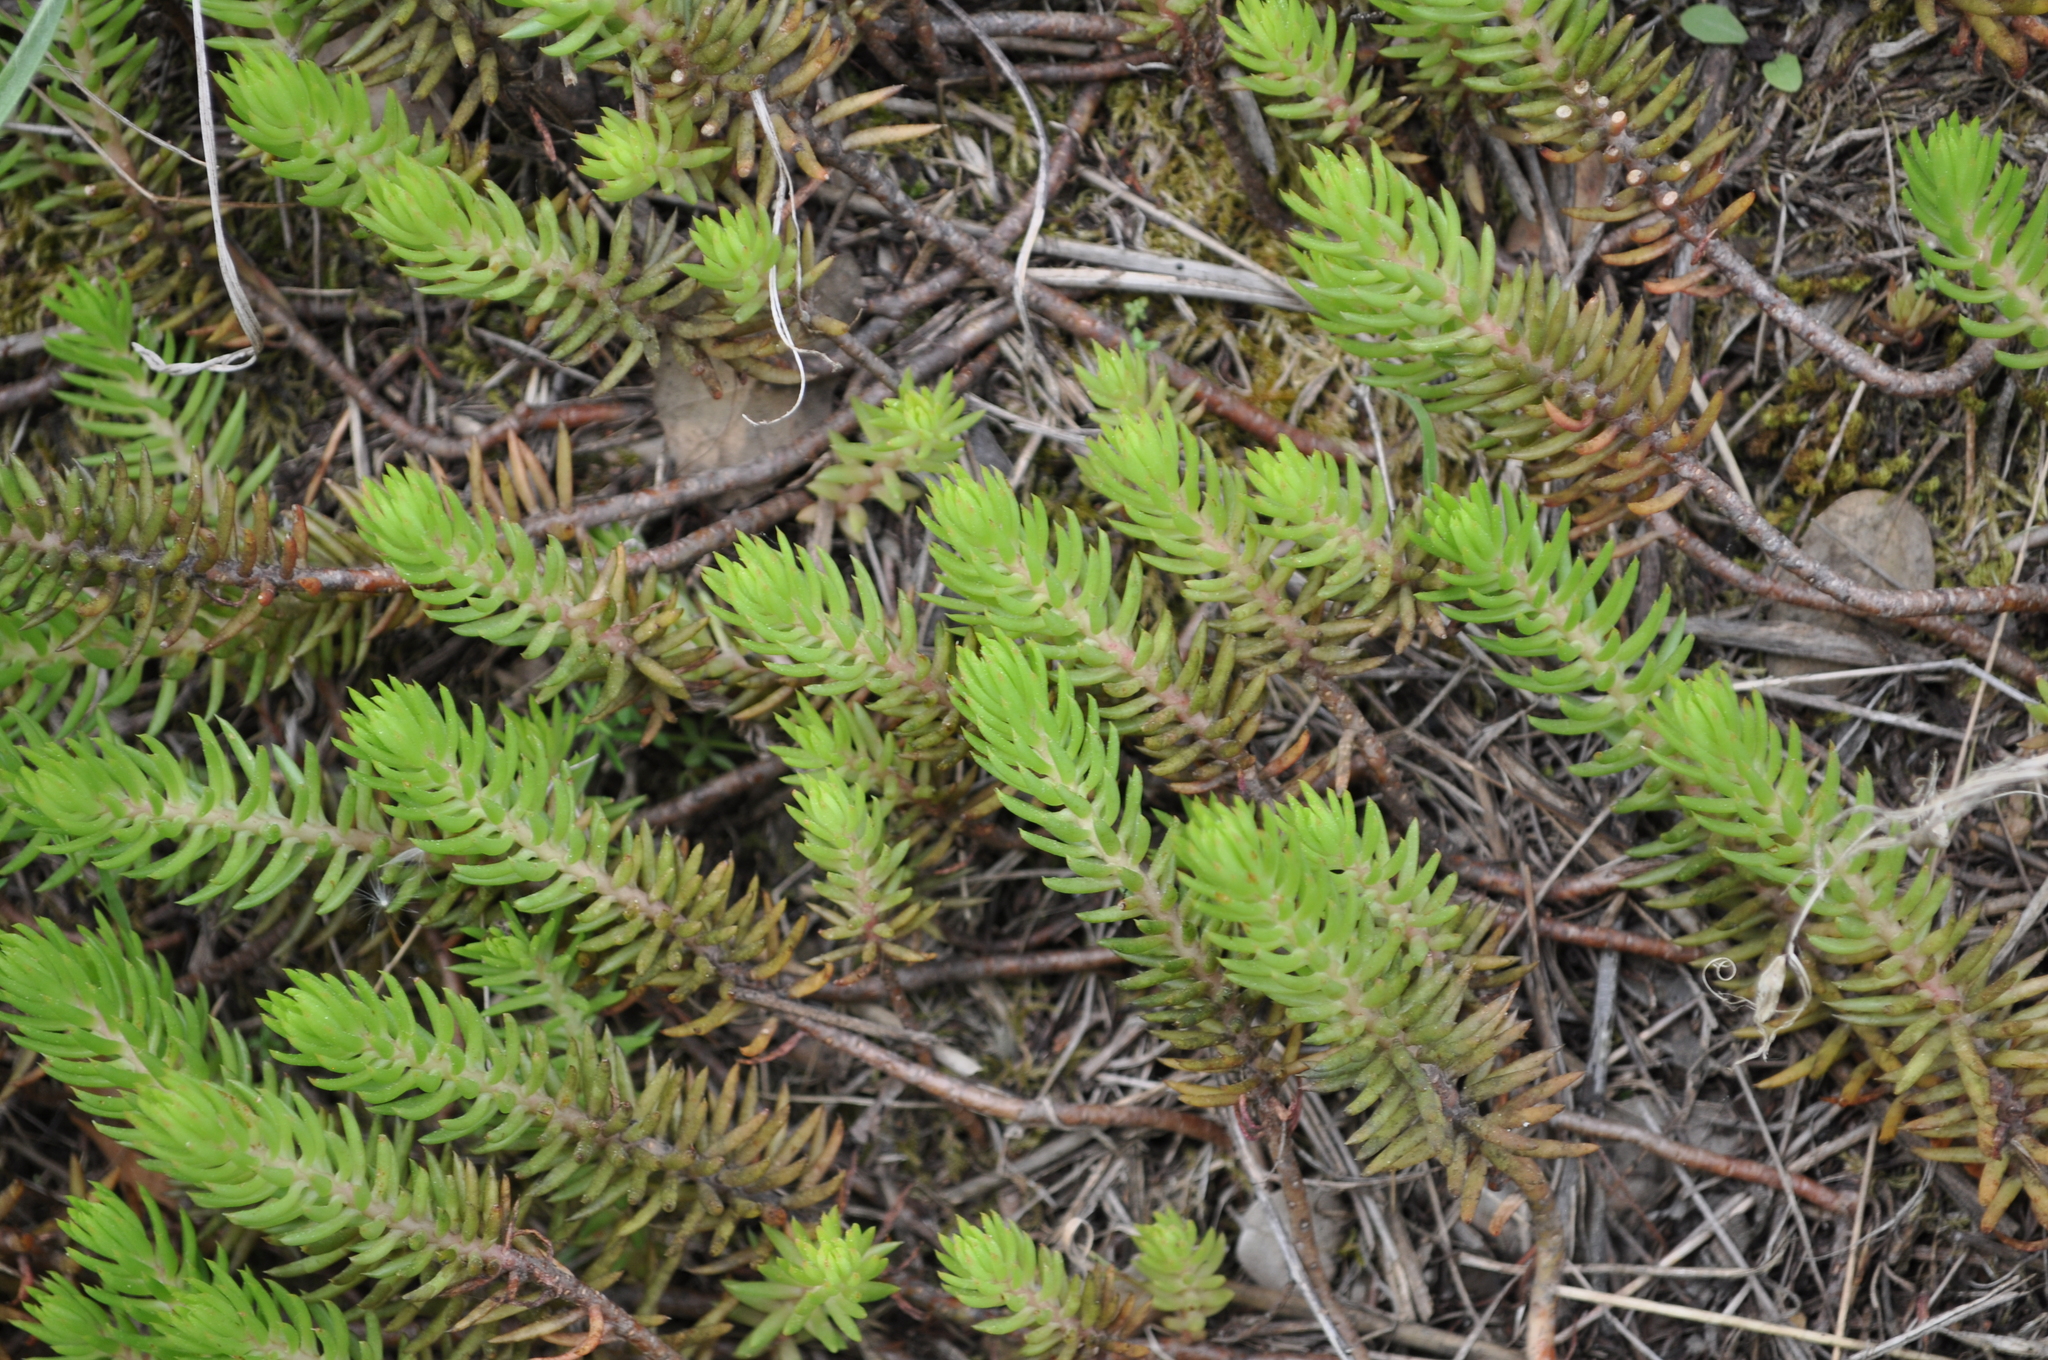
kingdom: Plantae
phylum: Tracheophyta
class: Magnoliopsida
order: Saxifragales
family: Crassulaceae
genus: Petrosedum
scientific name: Petrosedum rupestre
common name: Jenny's stonecrop
